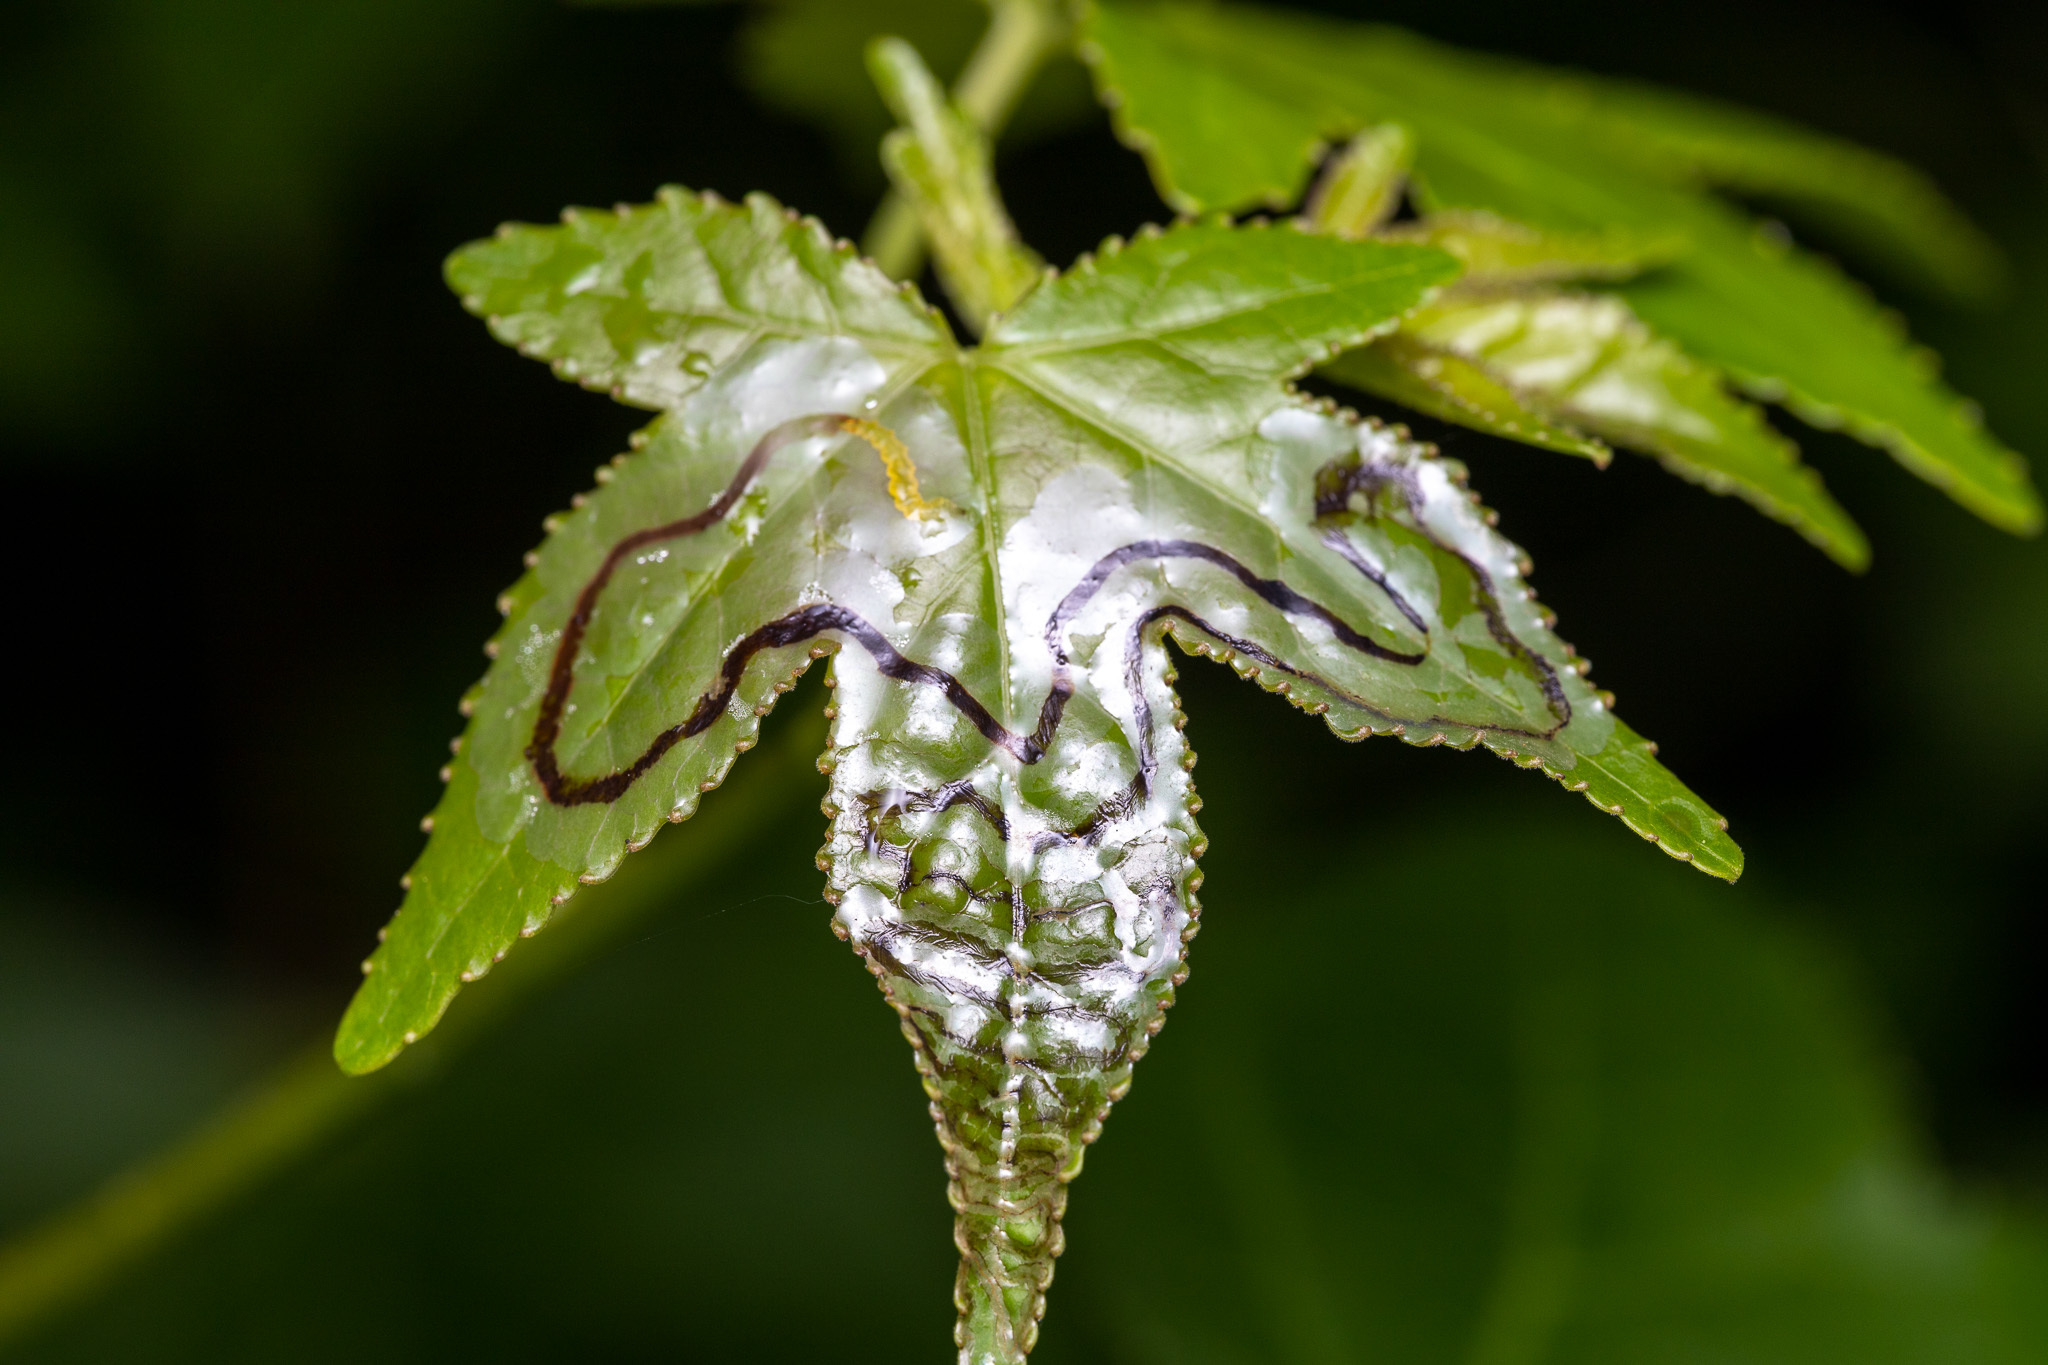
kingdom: Animalia
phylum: Arthropoda
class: Insecta
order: Lepidoptera
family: Gracillariidae
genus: Phyllocnistis
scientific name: Phyllocnistis liquidambarisella
